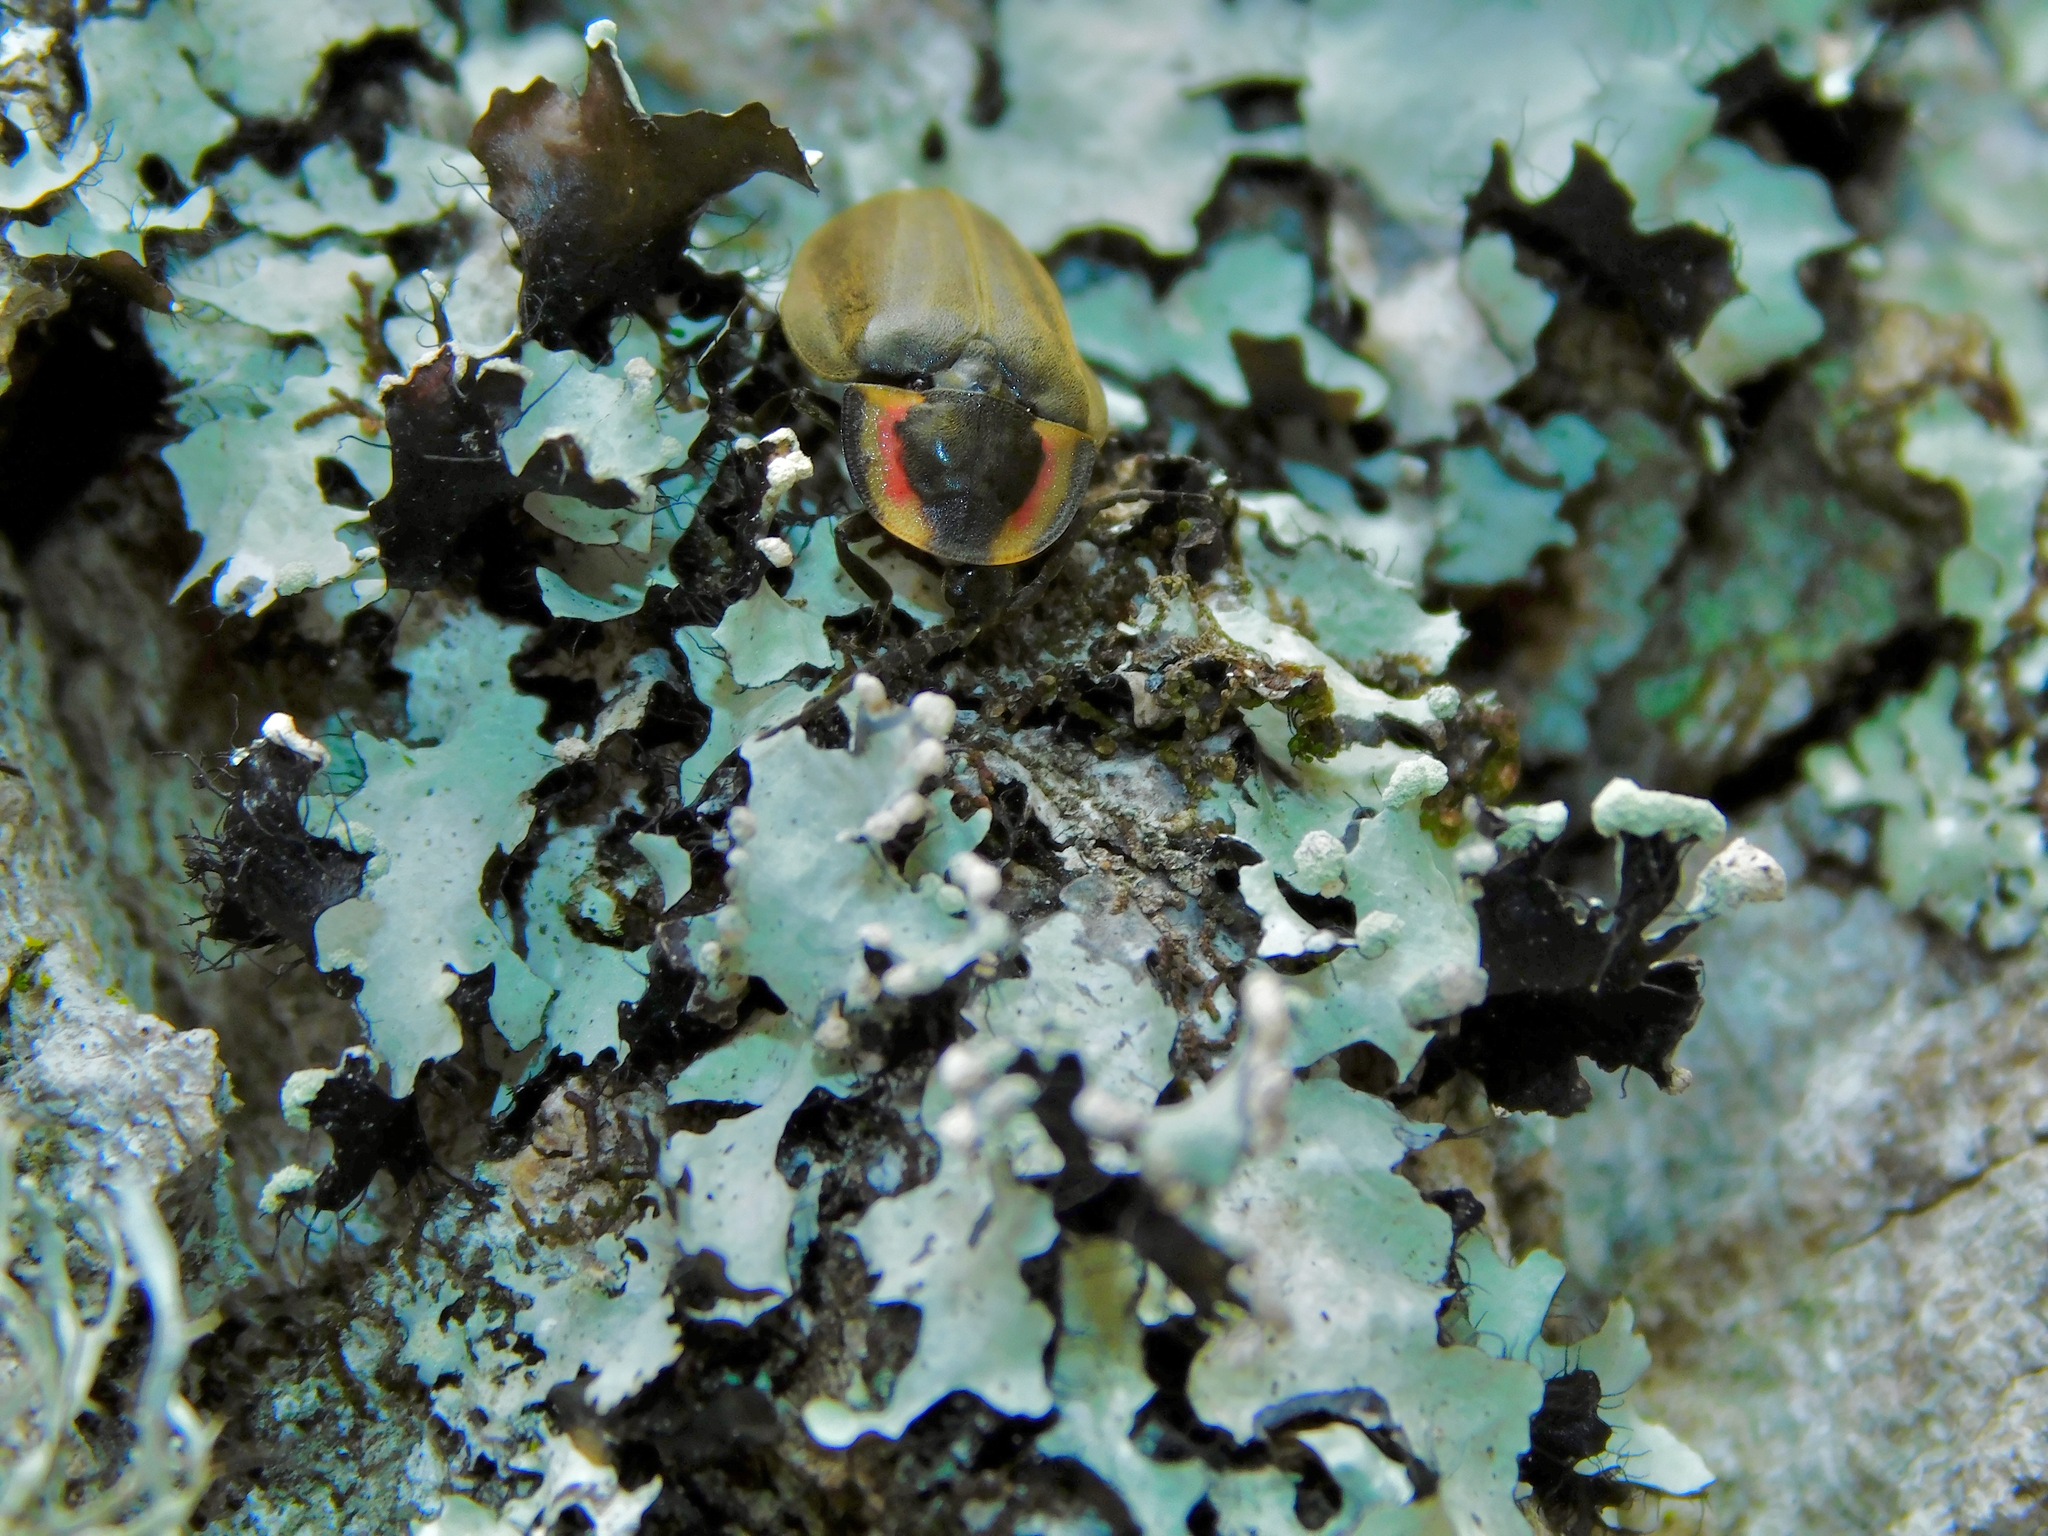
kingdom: Animalia
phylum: Arthropoda
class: Insecta
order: Coleoptera
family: Lampyridae
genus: Photinus
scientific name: Photinus corrusca
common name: Winter firefly
